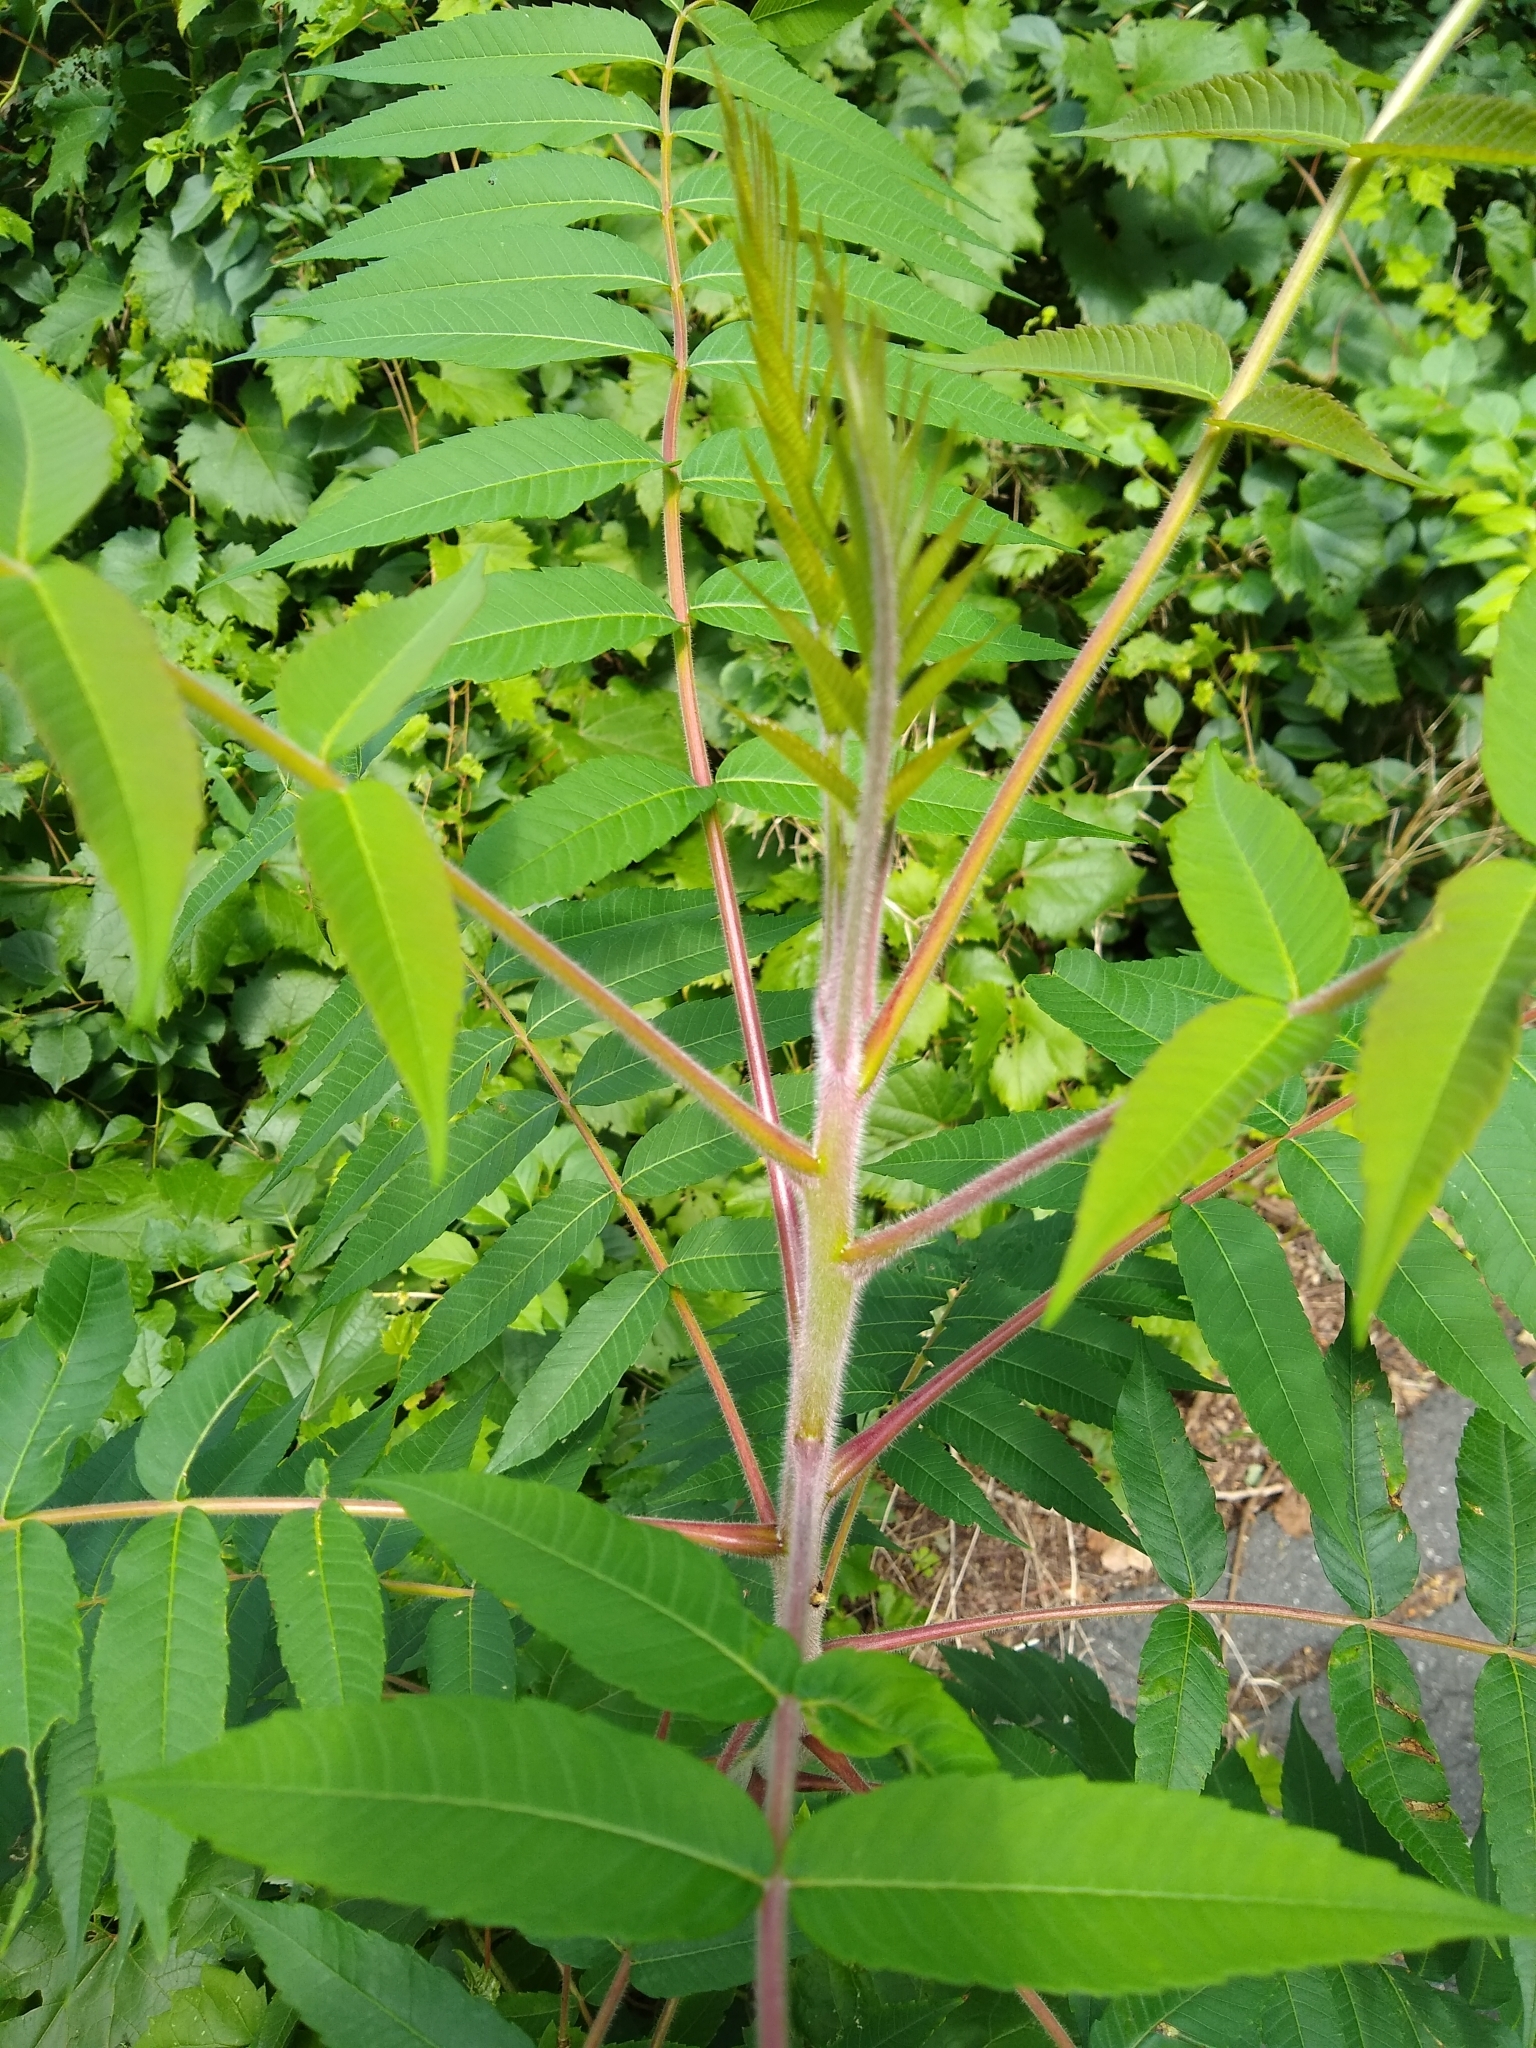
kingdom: Plantae
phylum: Tracheophyta
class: Magnoliopsida
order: Sapindales
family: Anacardiaceae
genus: Rhus
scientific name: Rhus typhina
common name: Staghorn sumac
